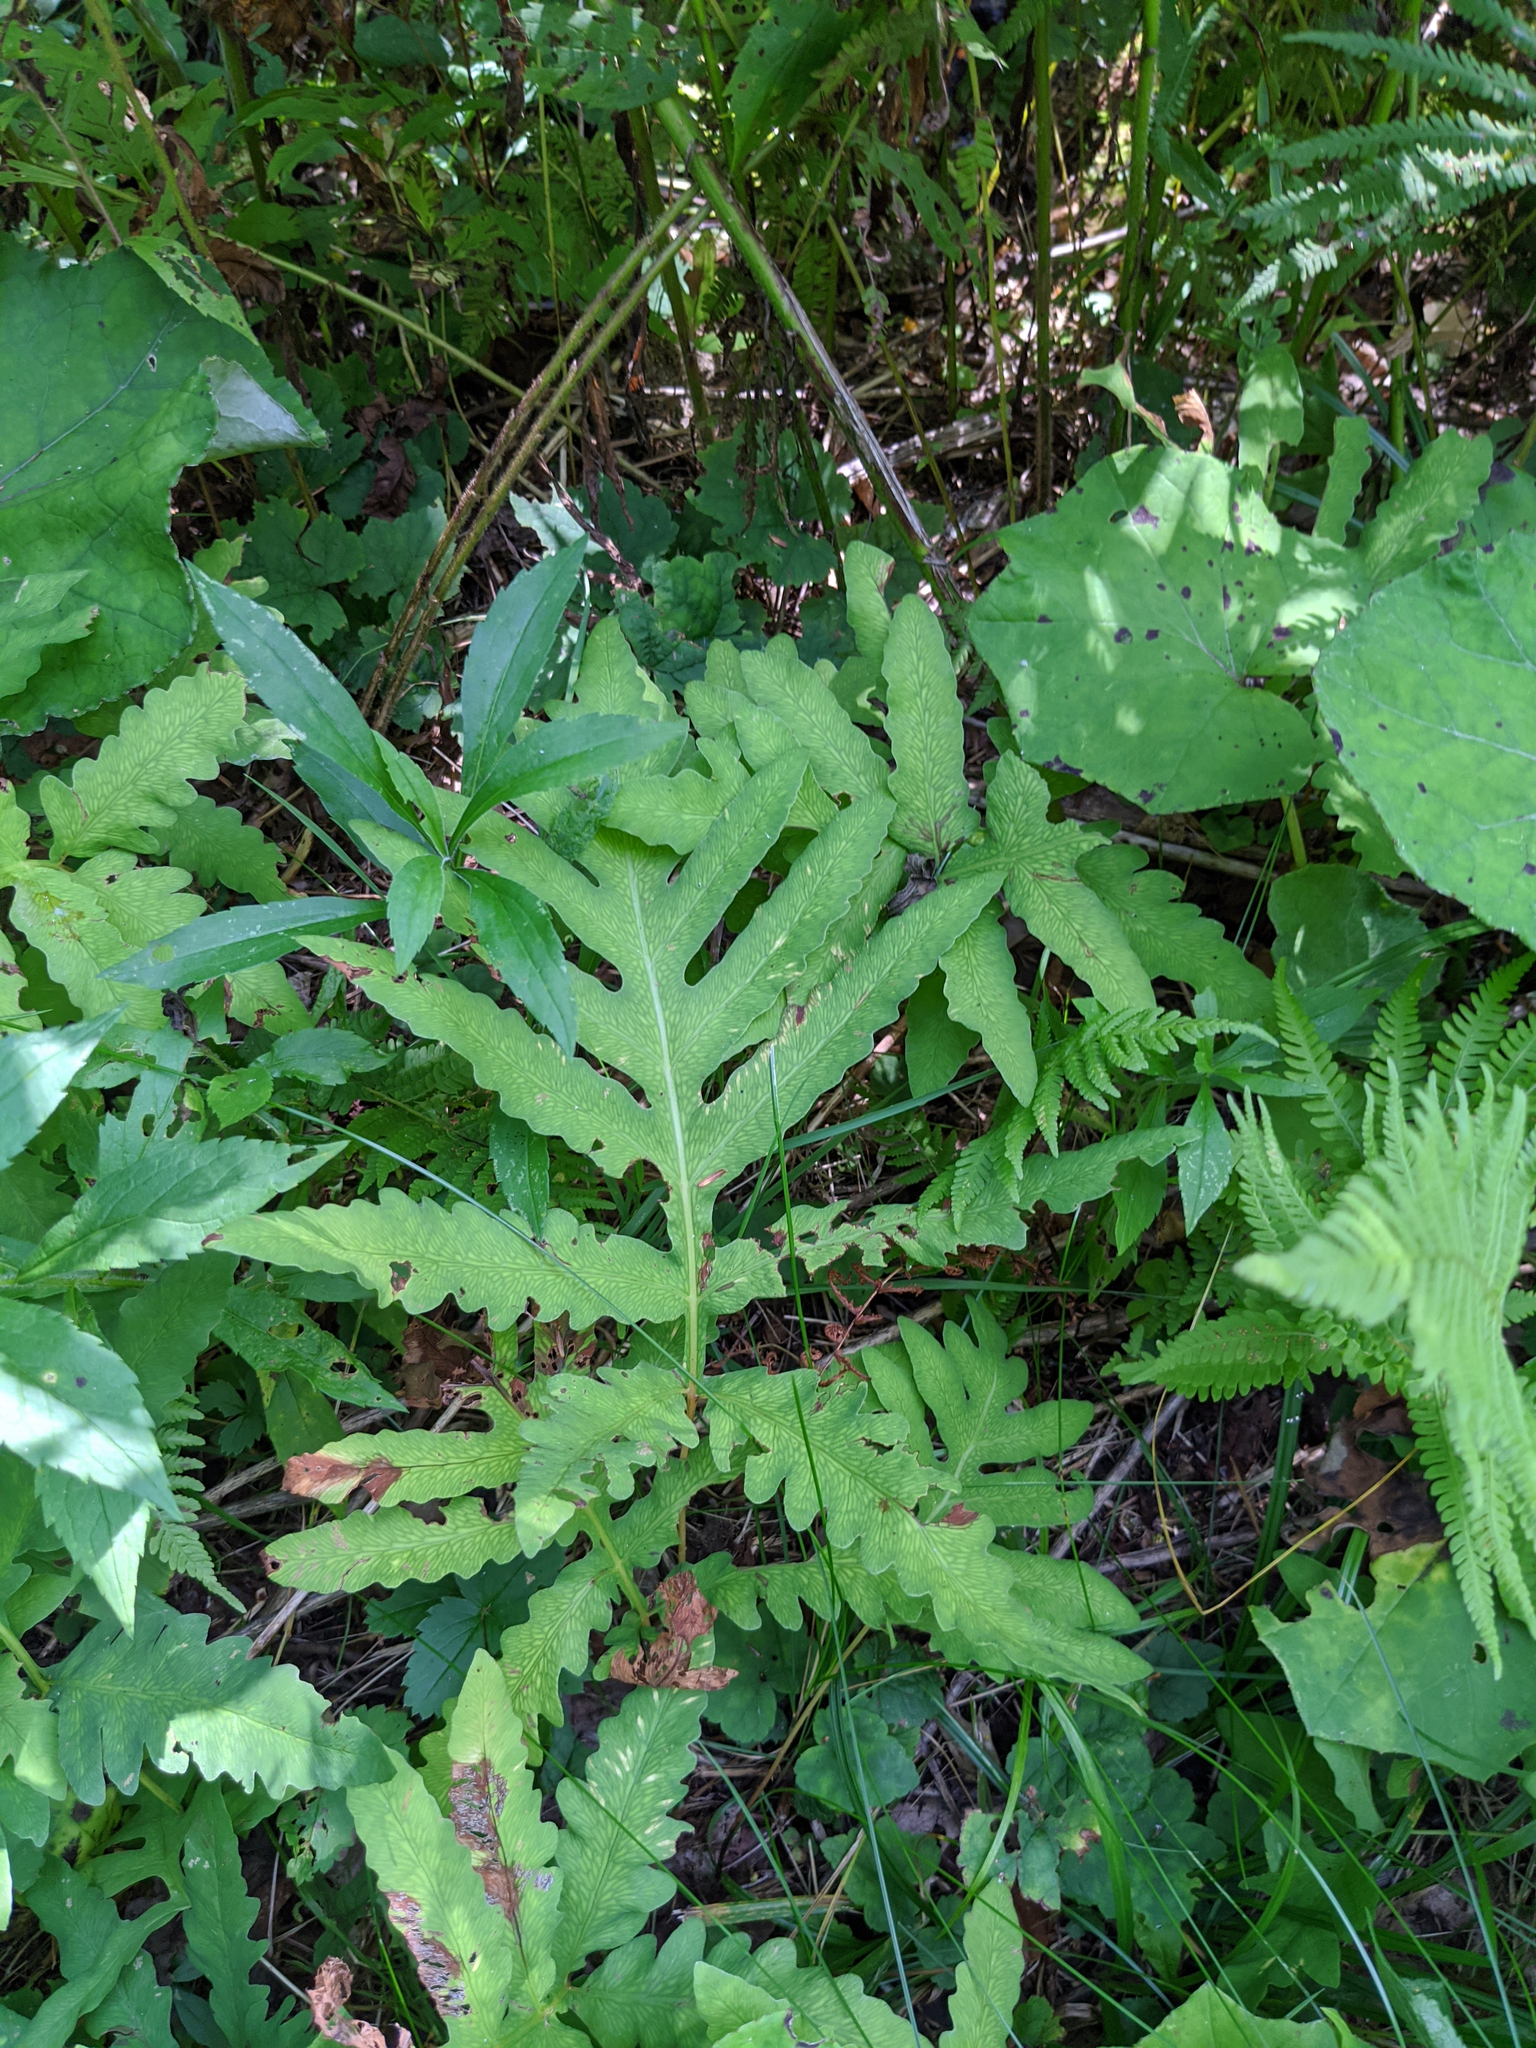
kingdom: Plantae
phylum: Tracheophyta
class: Polypodiopsida
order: Polypodiales
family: Onocleaceae
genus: Onoclea
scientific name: Onoclea sensibilis
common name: Sensitive fern
